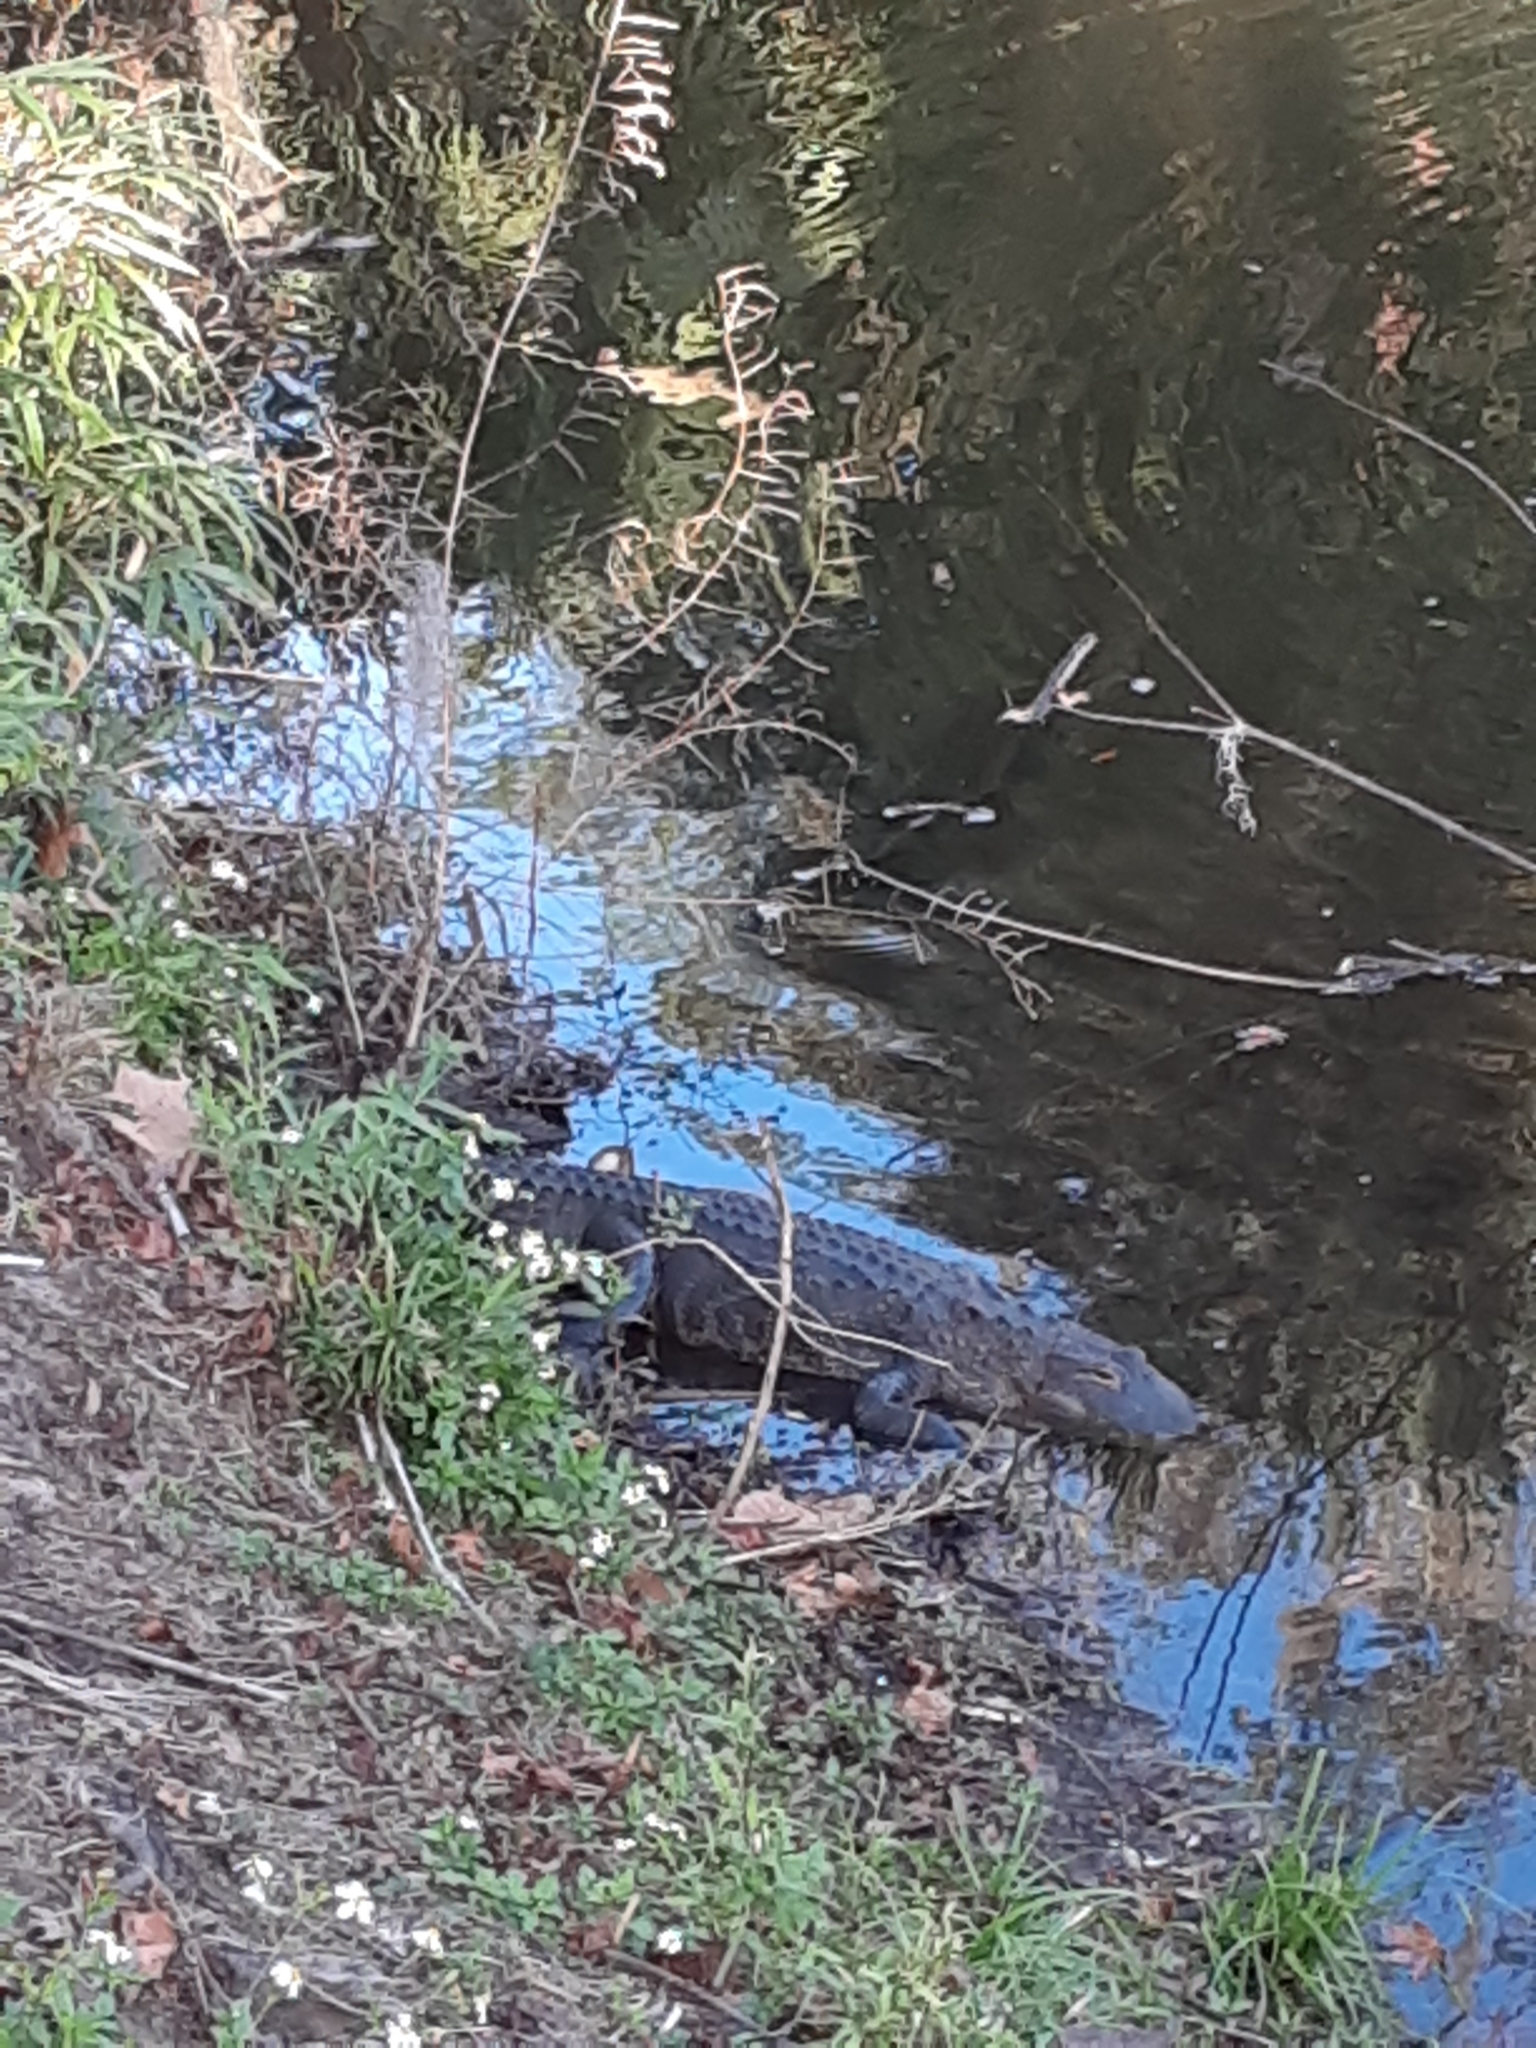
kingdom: Animalia
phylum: Chordata
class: Crocodylia
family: Alligatoridae
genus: Alligator
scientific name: Alligator mississippiensis
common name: American alligator
